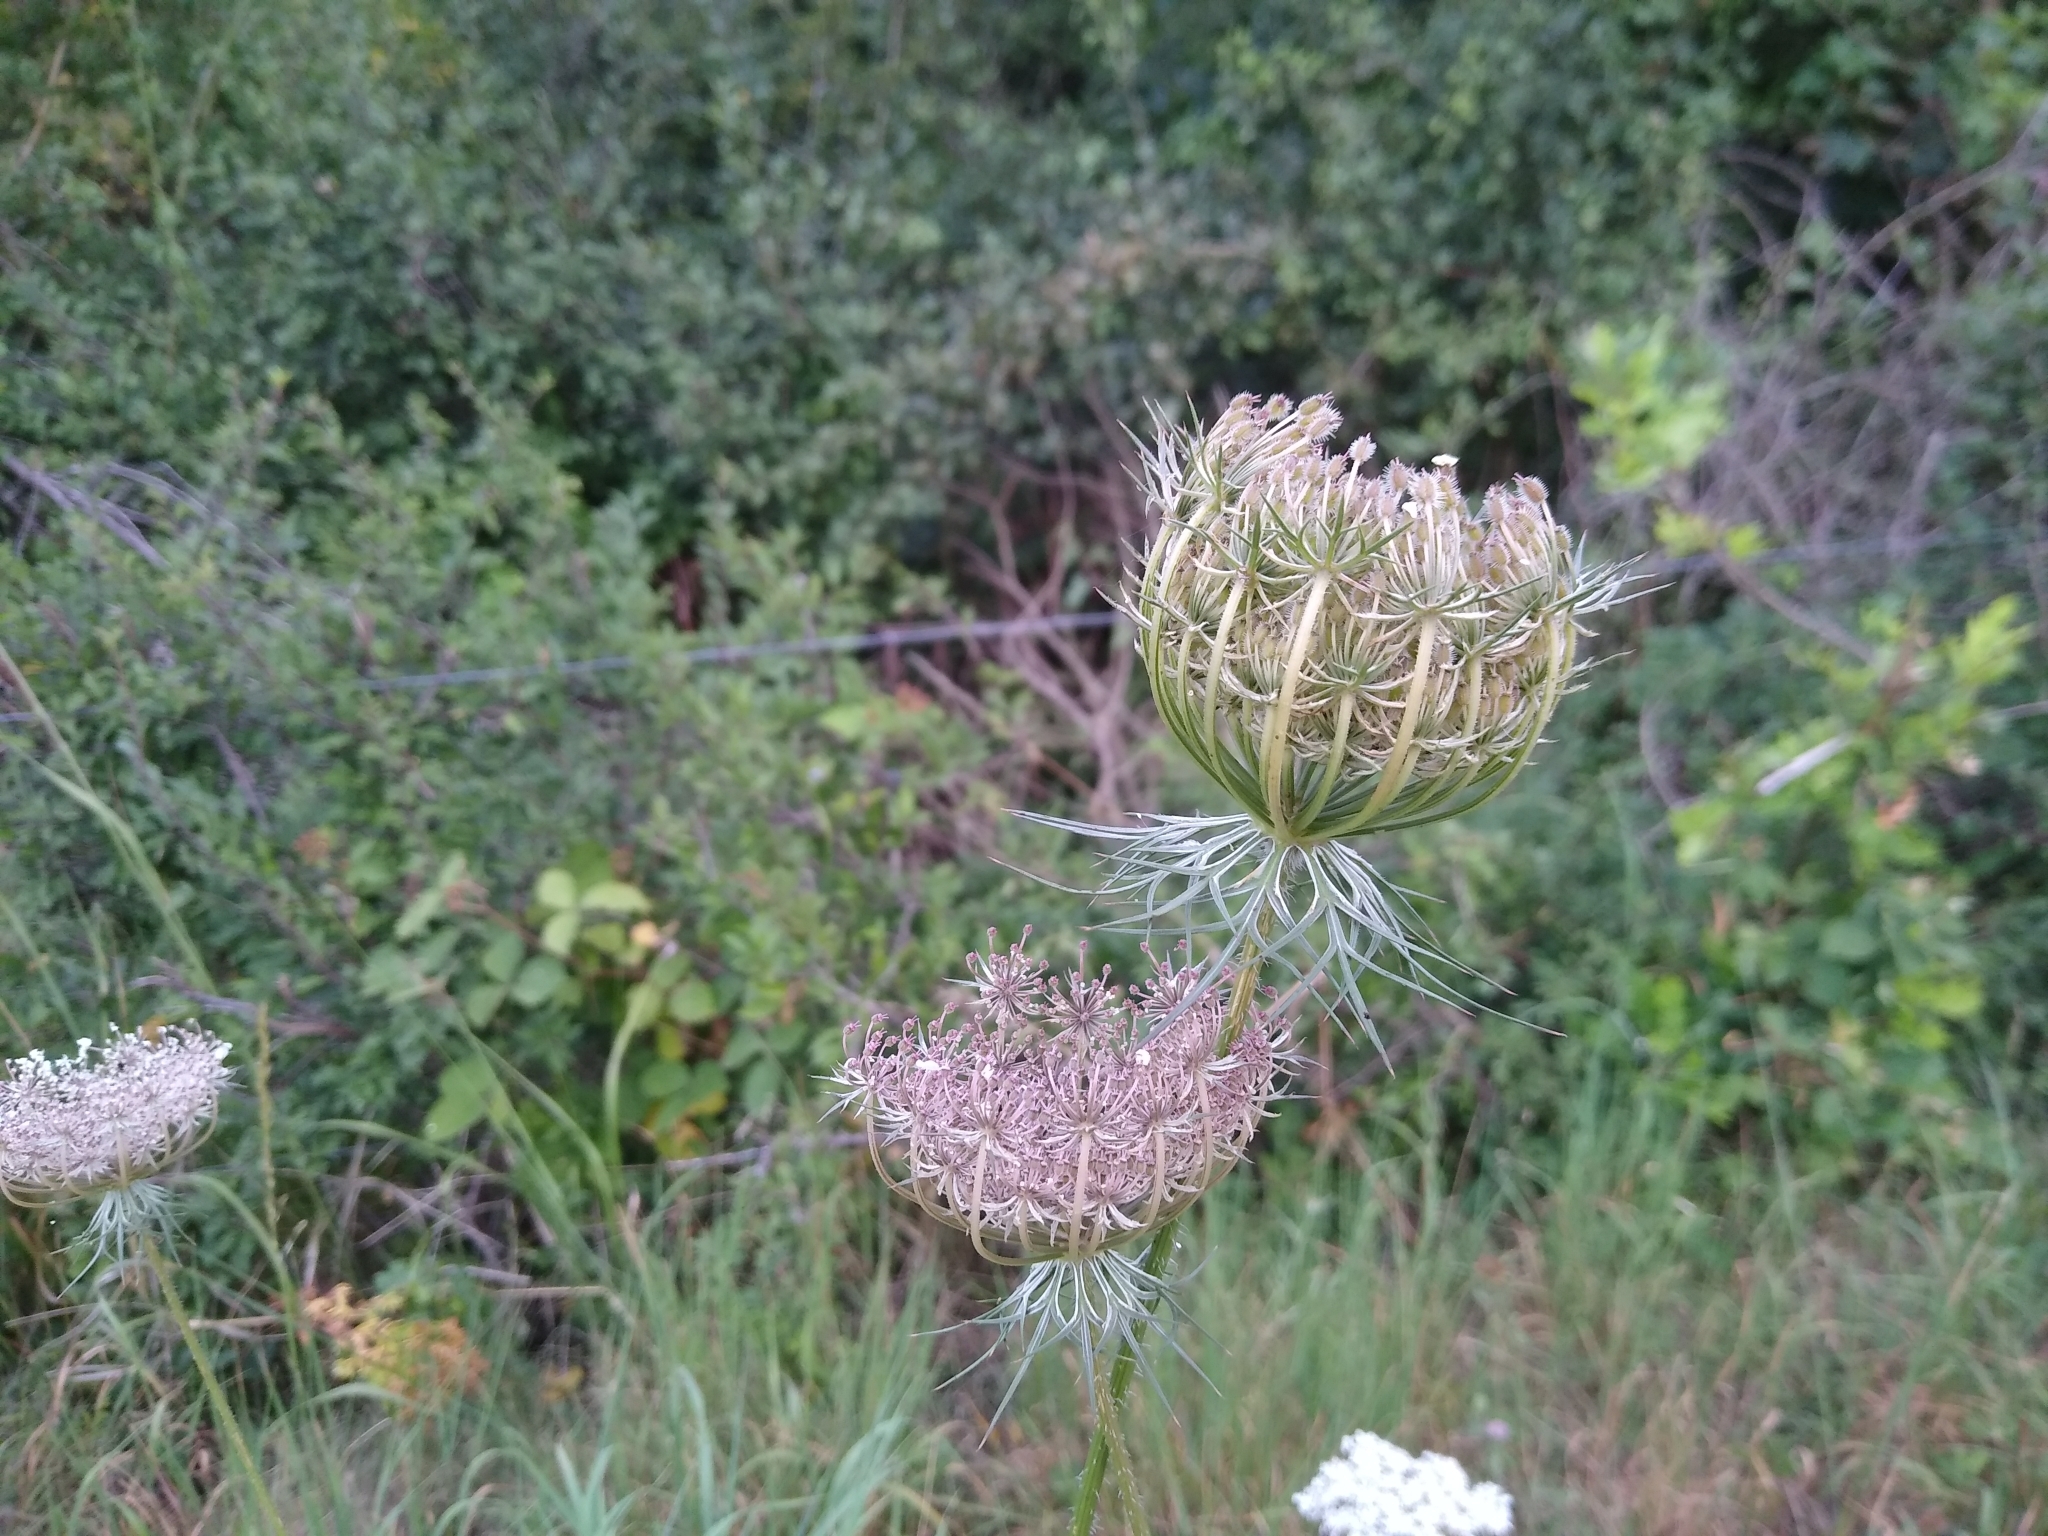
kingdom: Plantae
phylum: Tracheophyta
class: Magnoliopsida
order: Apiales
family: Apiaceae
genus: Daucus
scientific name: Daucus carota
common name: Wild carrot
